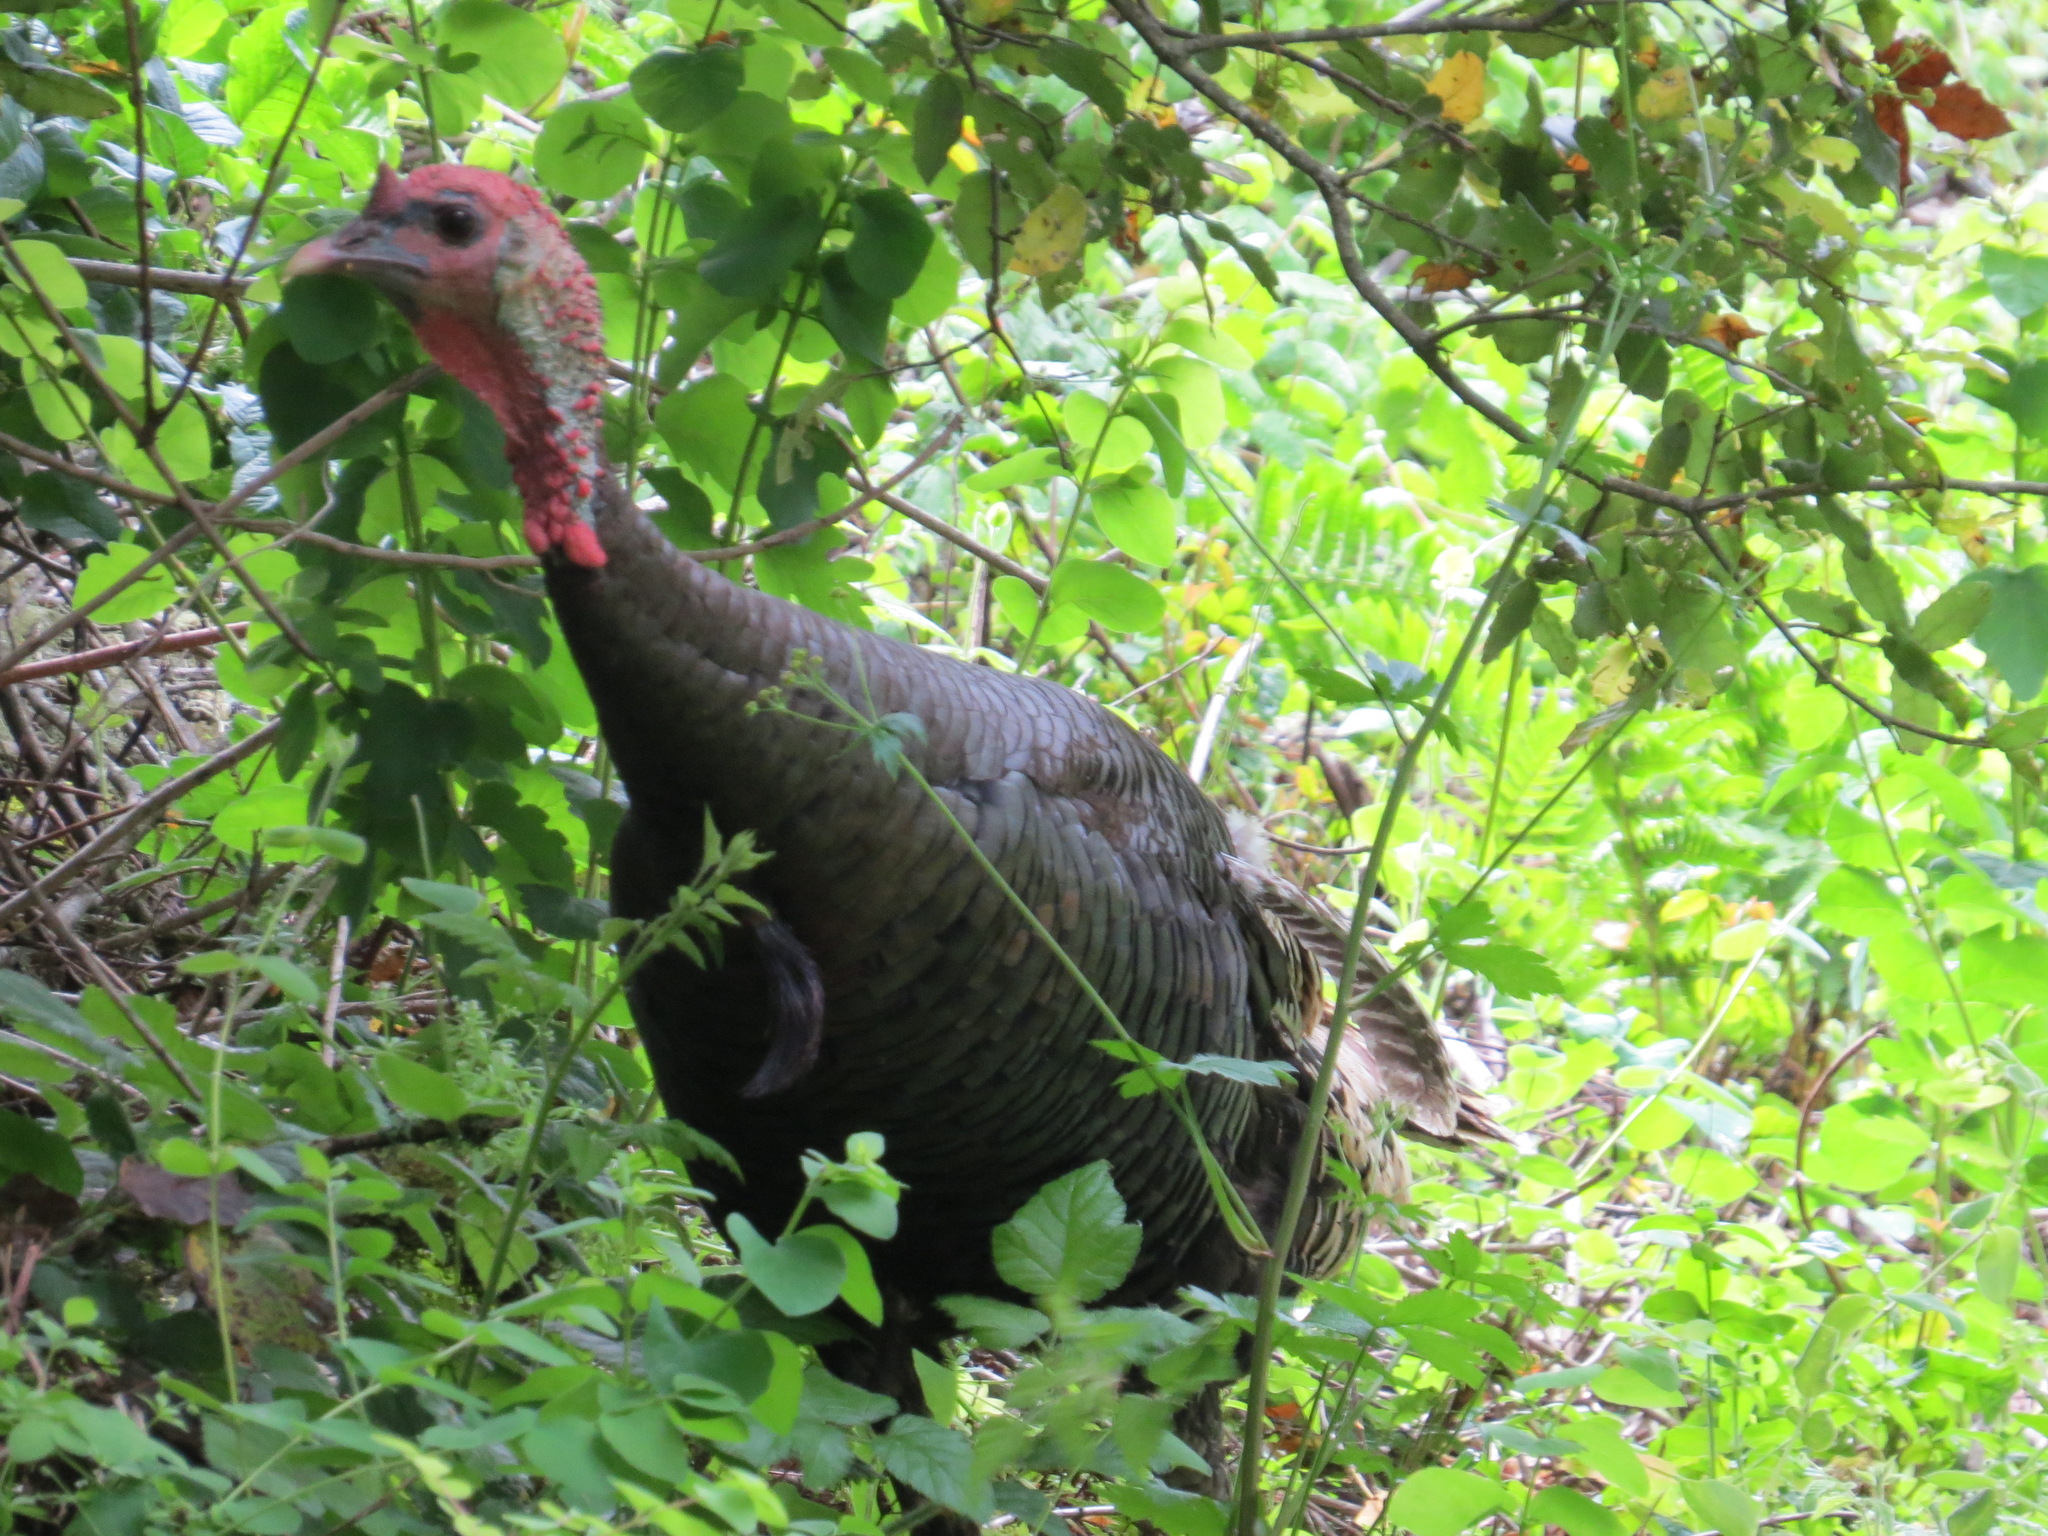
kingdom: Animalia
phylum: Chordata
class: Aves
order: Galliformes
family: Phasianidae
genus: Meleagris
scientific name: Meleagris gallopavo
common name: Wild turkey
